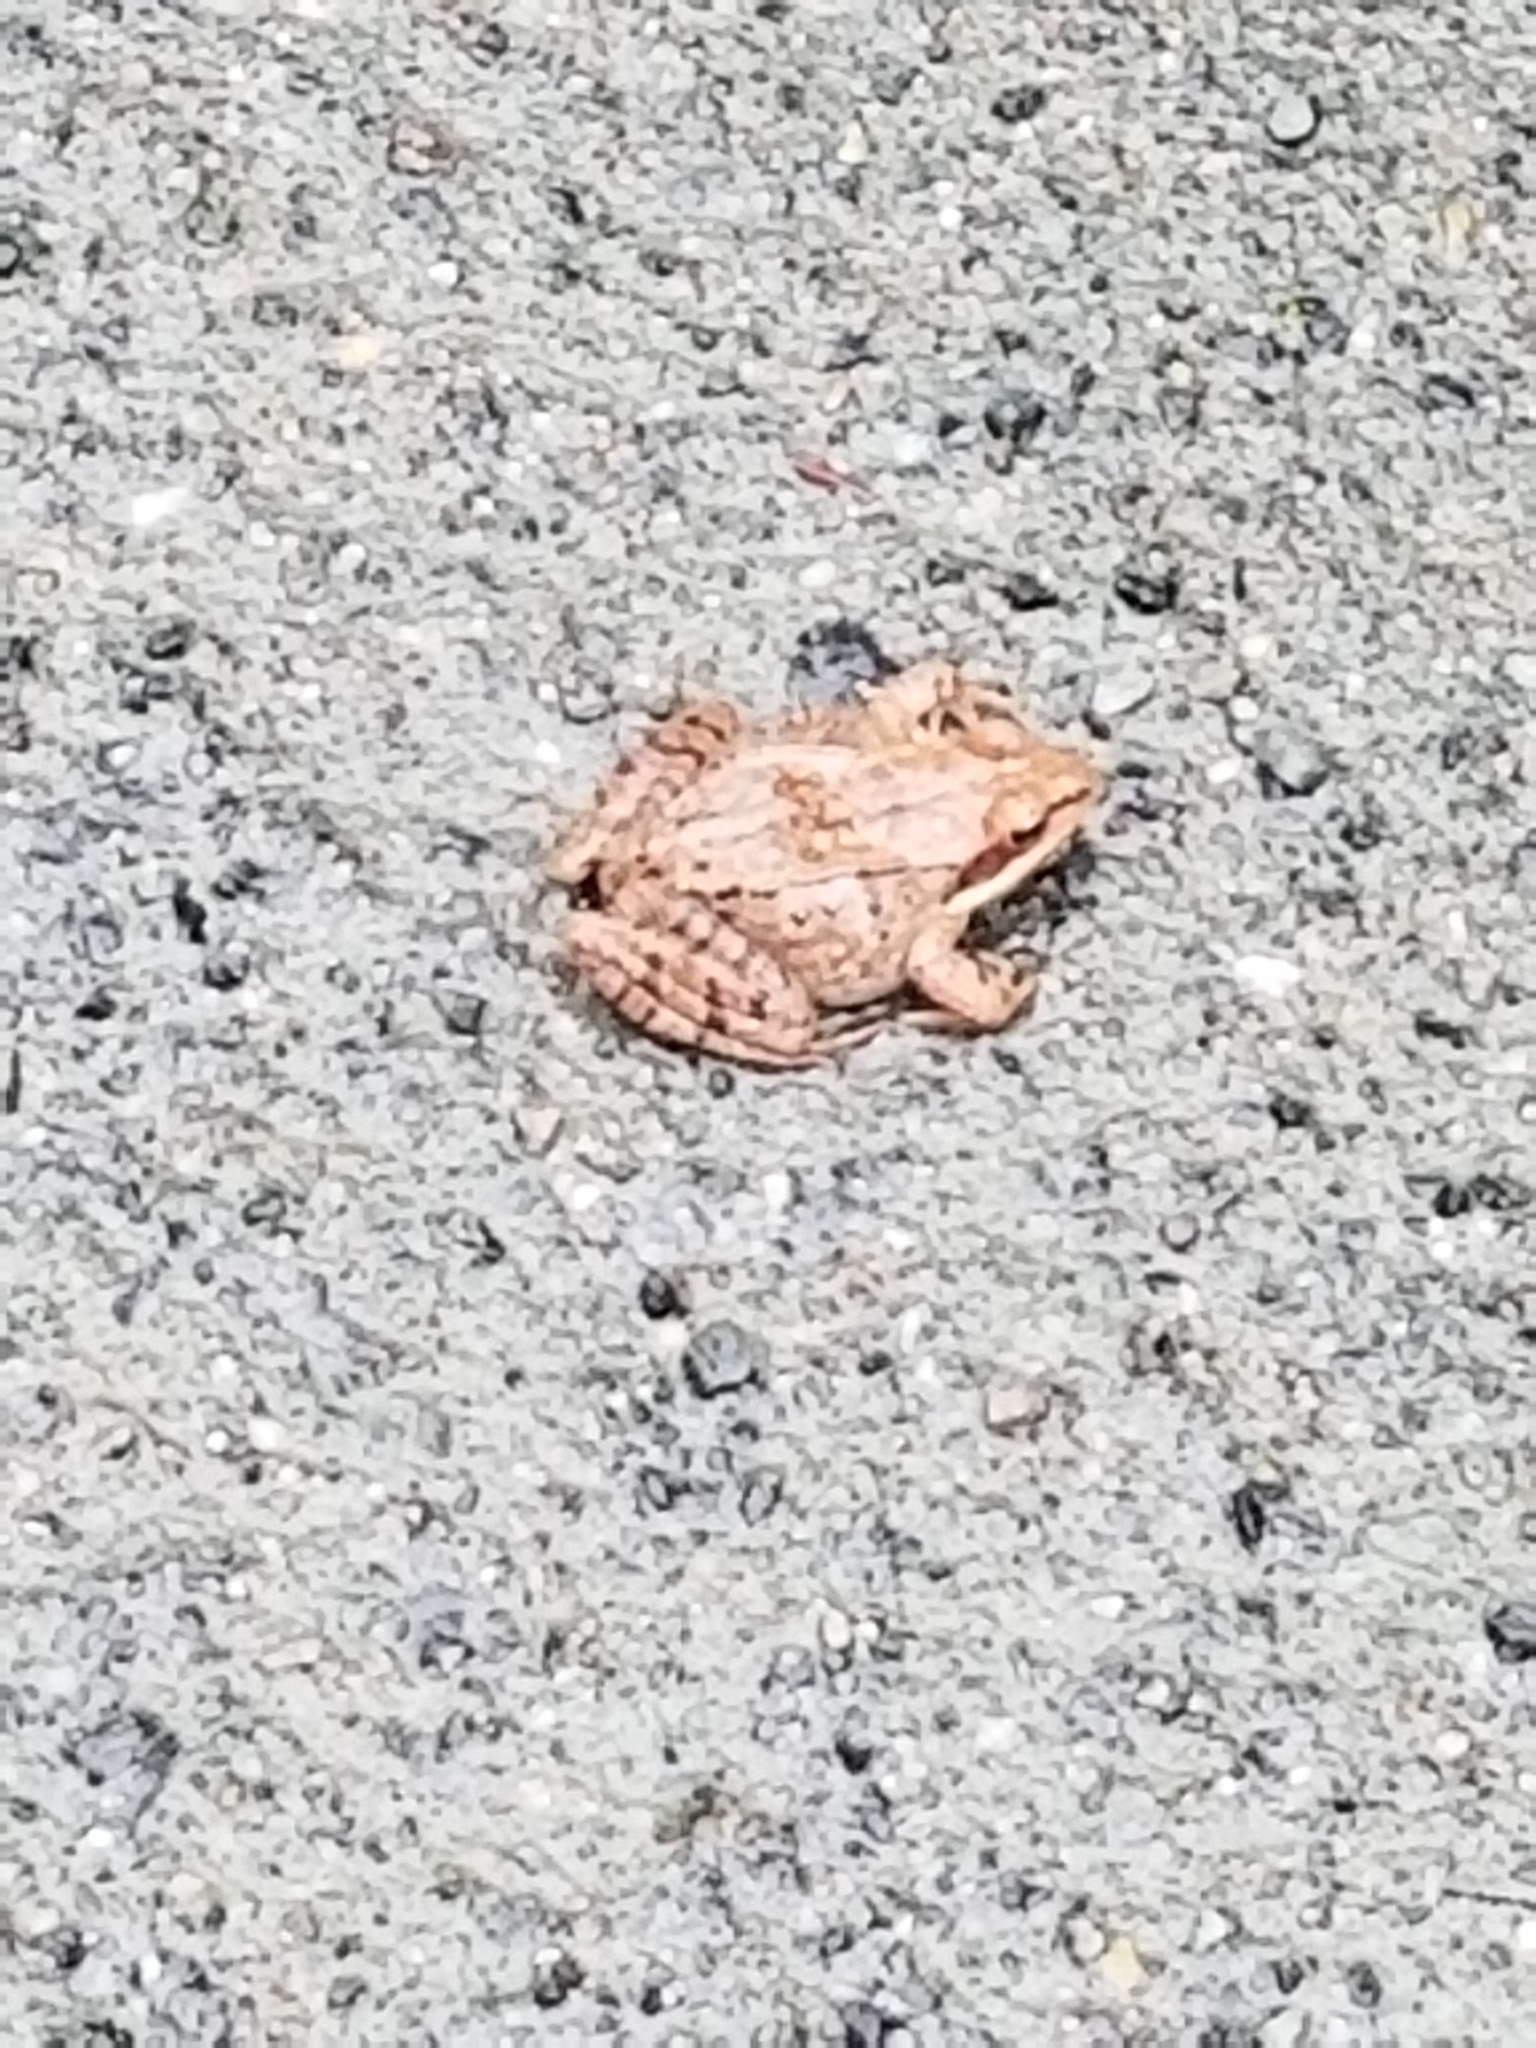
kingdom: Animalia
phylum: Chordata
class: Amphibia
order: Anura
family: Ranidae
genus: Lithobates
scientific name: Lithobates sylvaticus
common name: Wood frog
